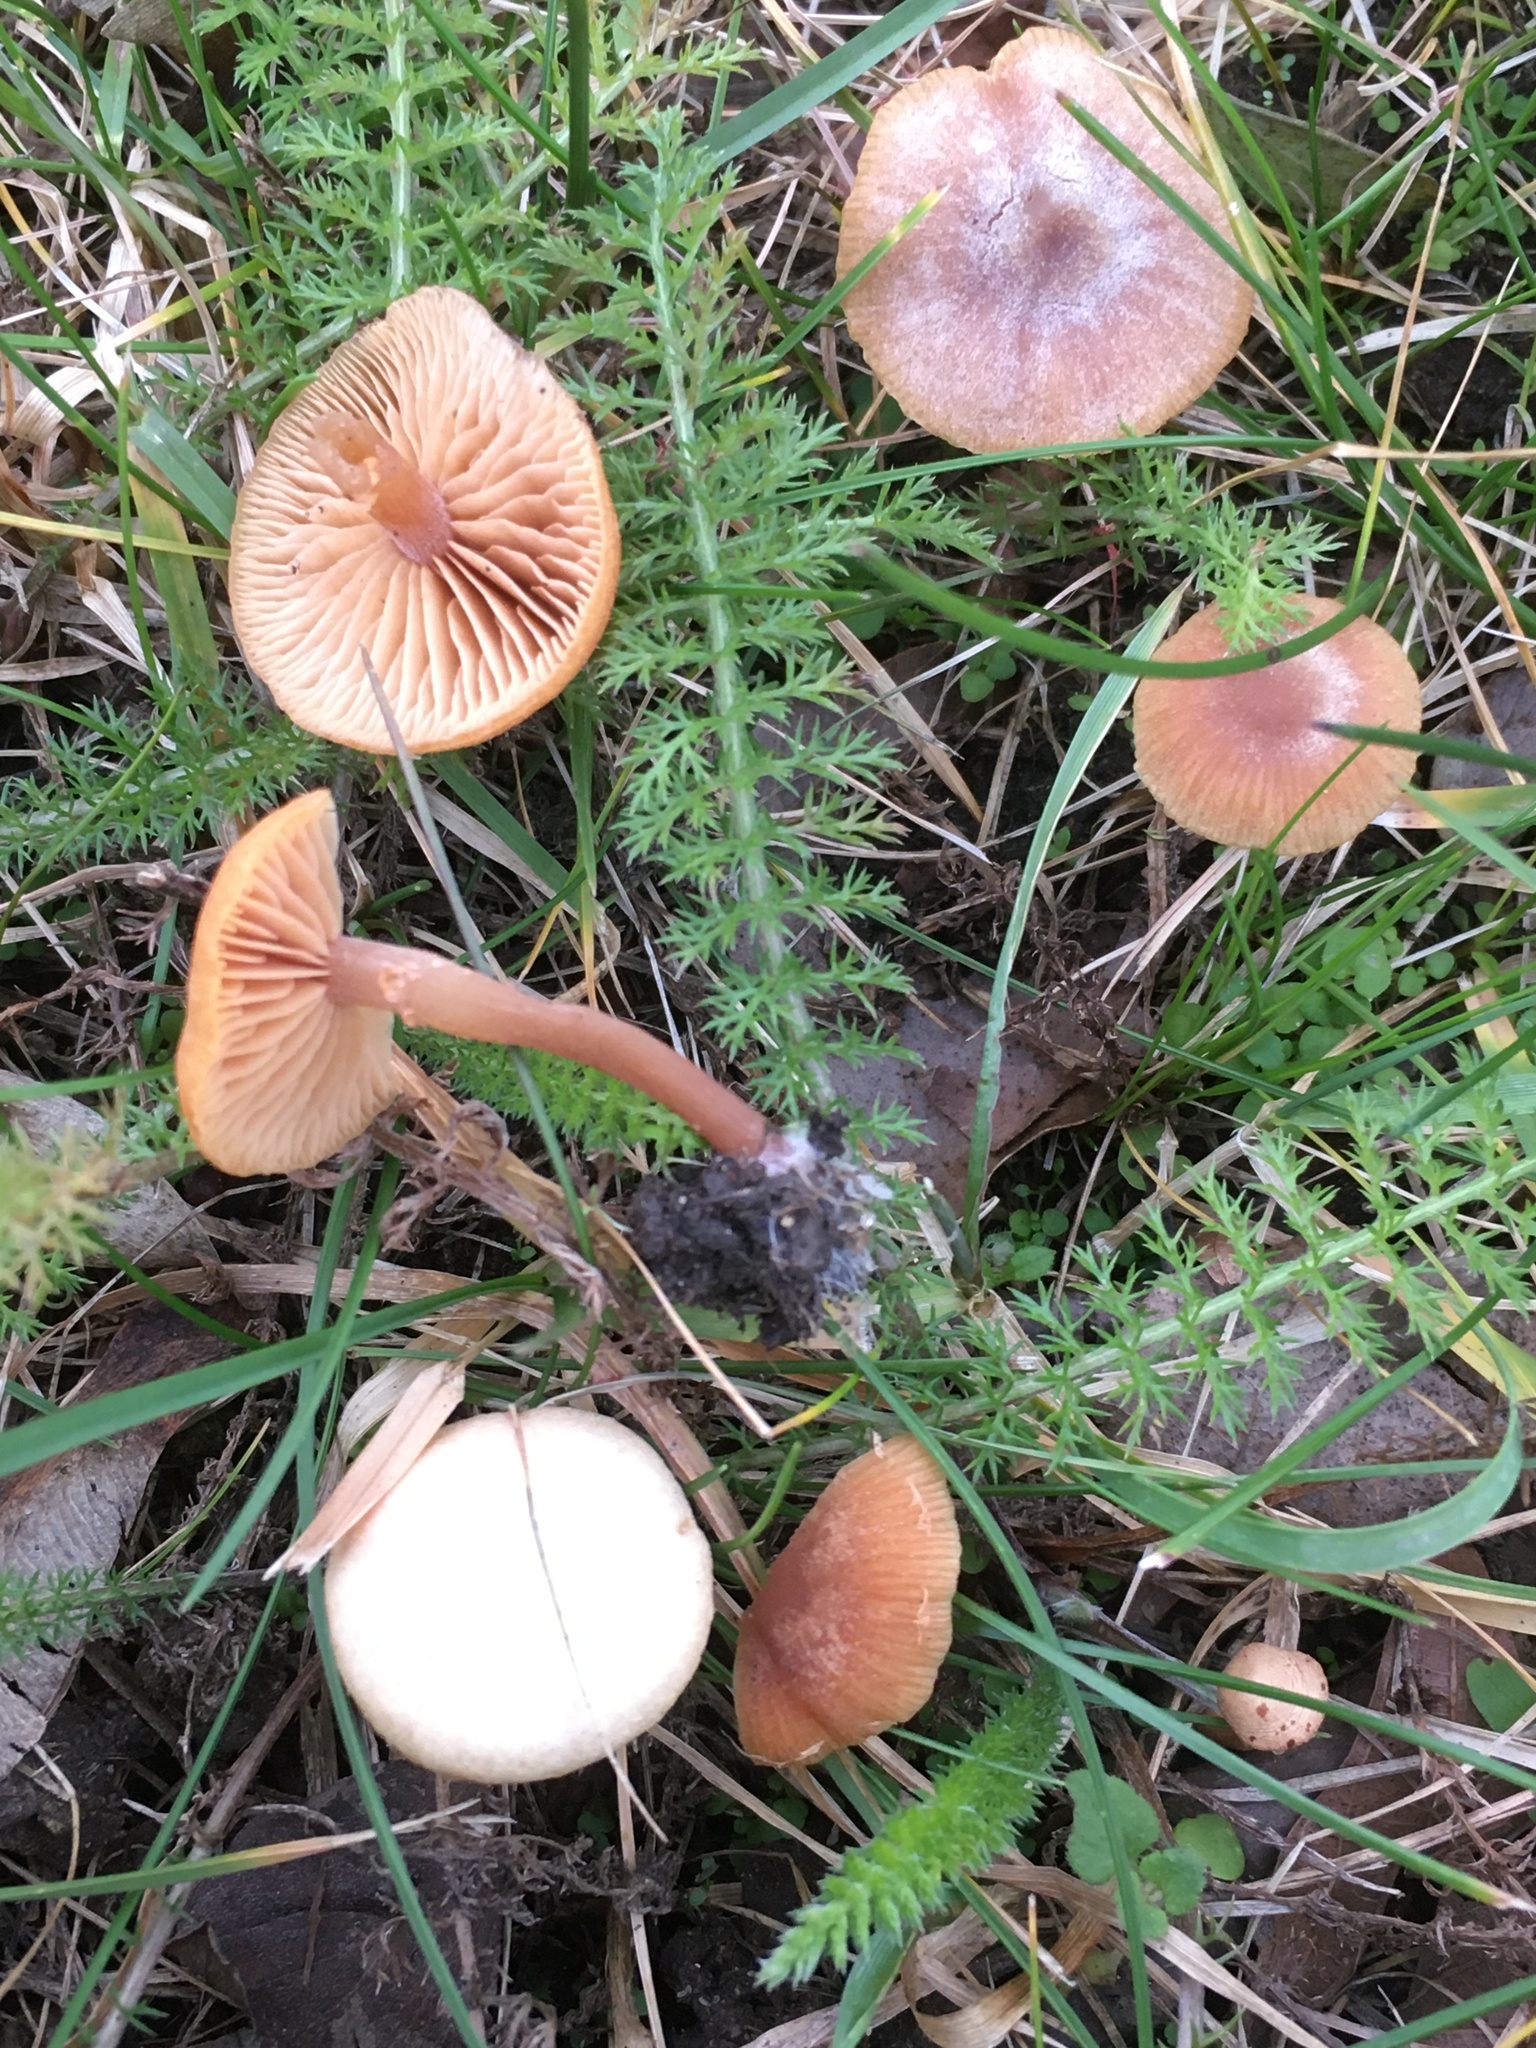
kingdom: Fungi
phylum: Basidiomycota
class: Agaricomycetes
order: Agaricales
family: Tubariaceae
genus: Tubaria
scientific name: Tubaria furfuracea
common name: Scurfy twiglet
